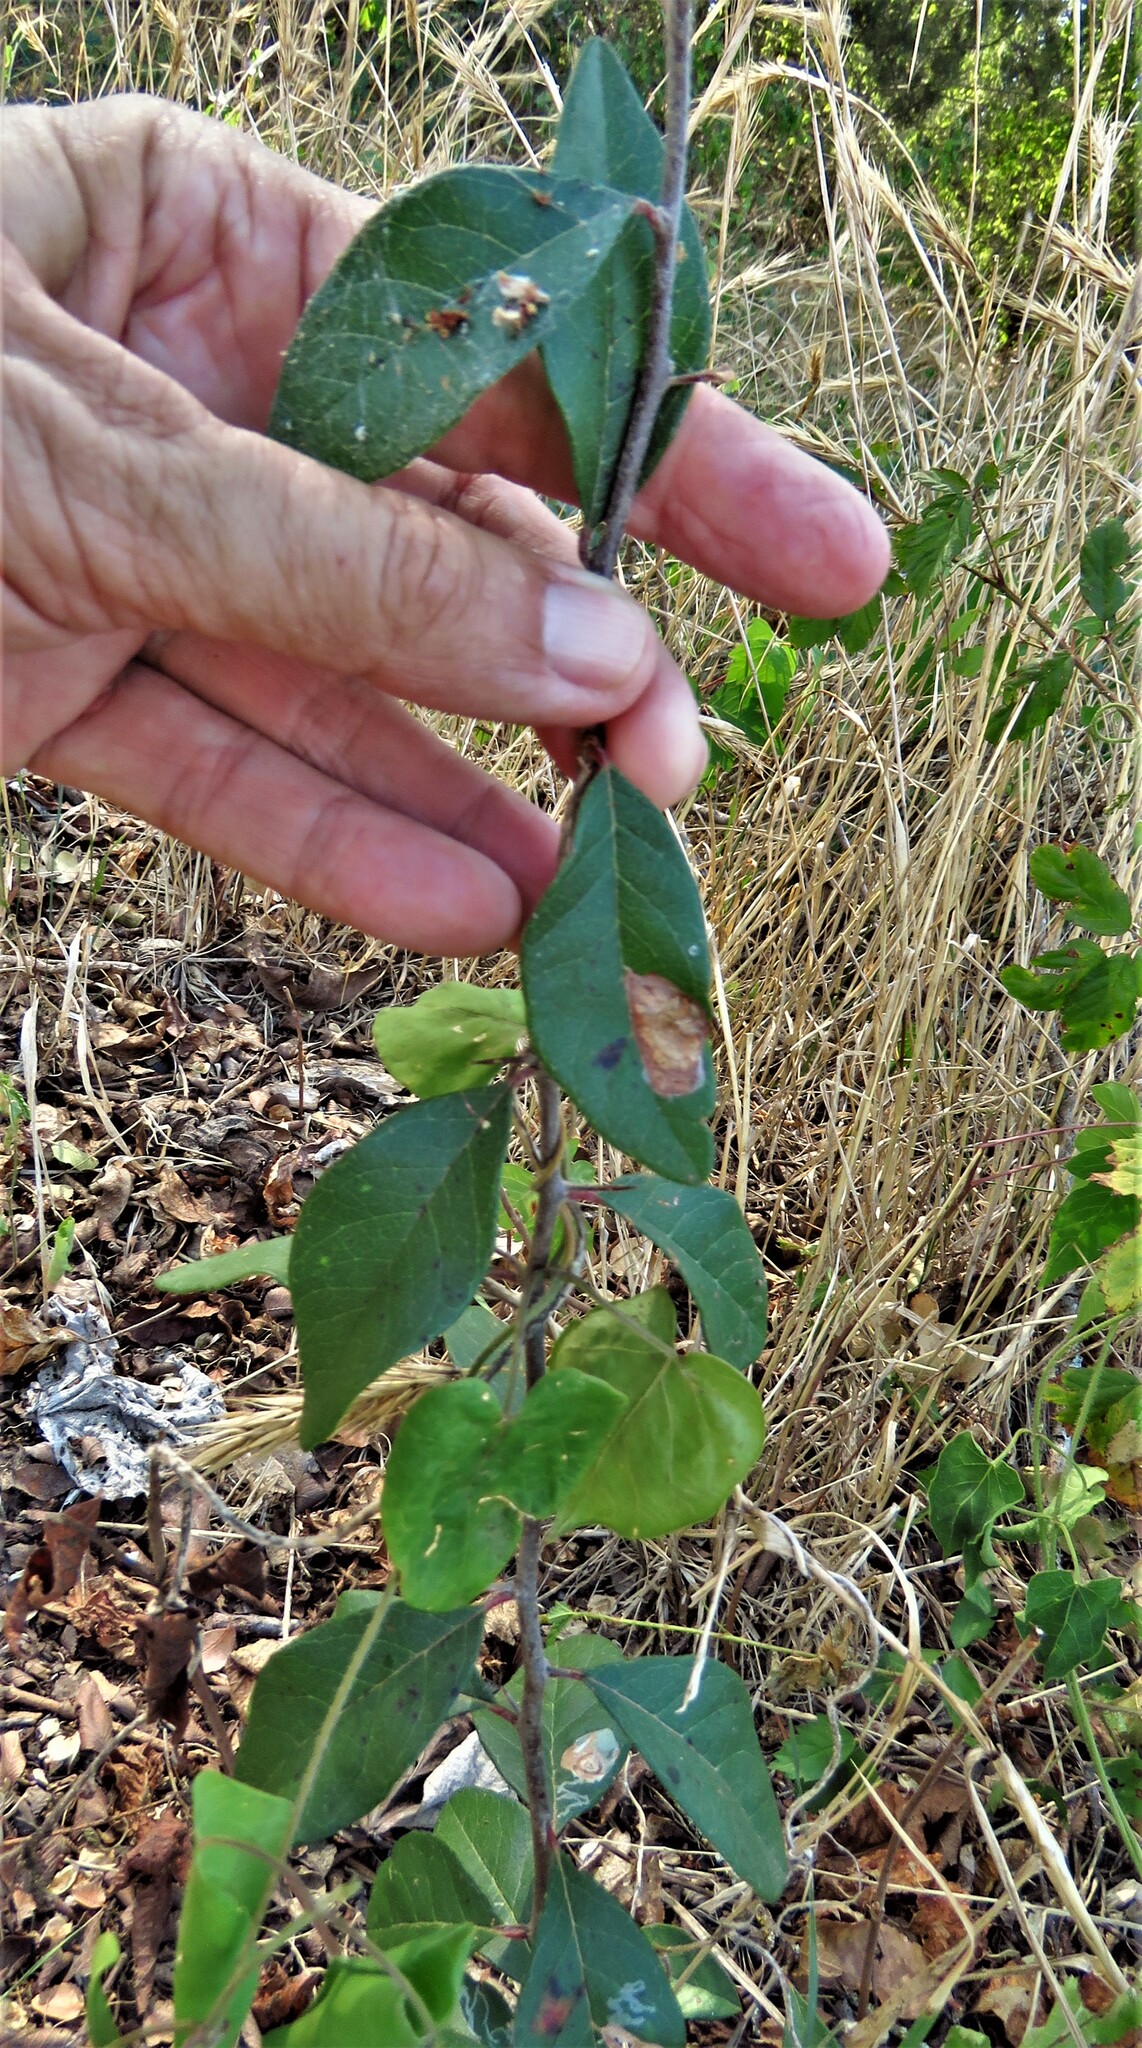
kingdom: Plantae
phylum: Tracheophyta
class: Magnoliopsida
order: Ericales
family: Sapotaceae
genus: Sideroxylon
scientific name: Sideroxylon lanuginosum
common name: Chittamwood
